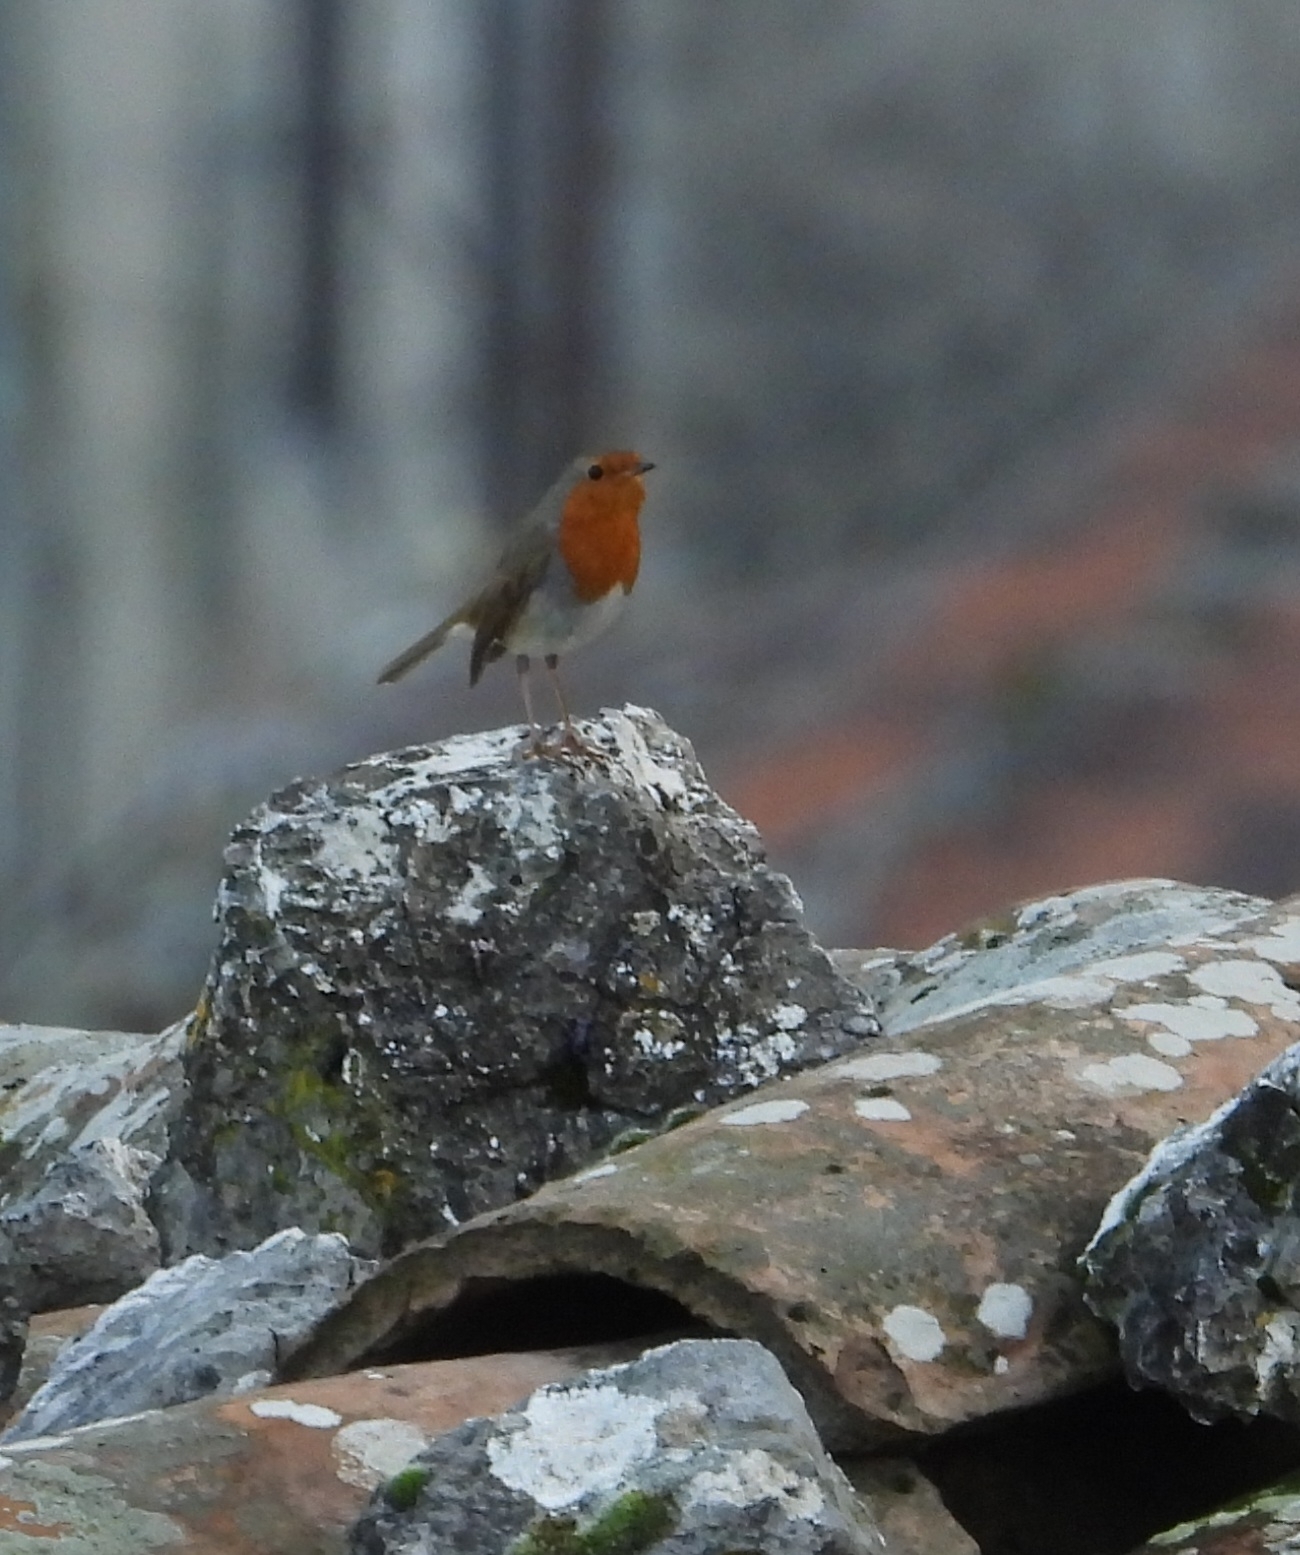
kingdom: Animalia
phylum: Chordata
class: Aves
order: Passeriformes
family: Muscicapidae
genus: Erithacus
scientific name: Erithacus rubecula
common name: European robin
